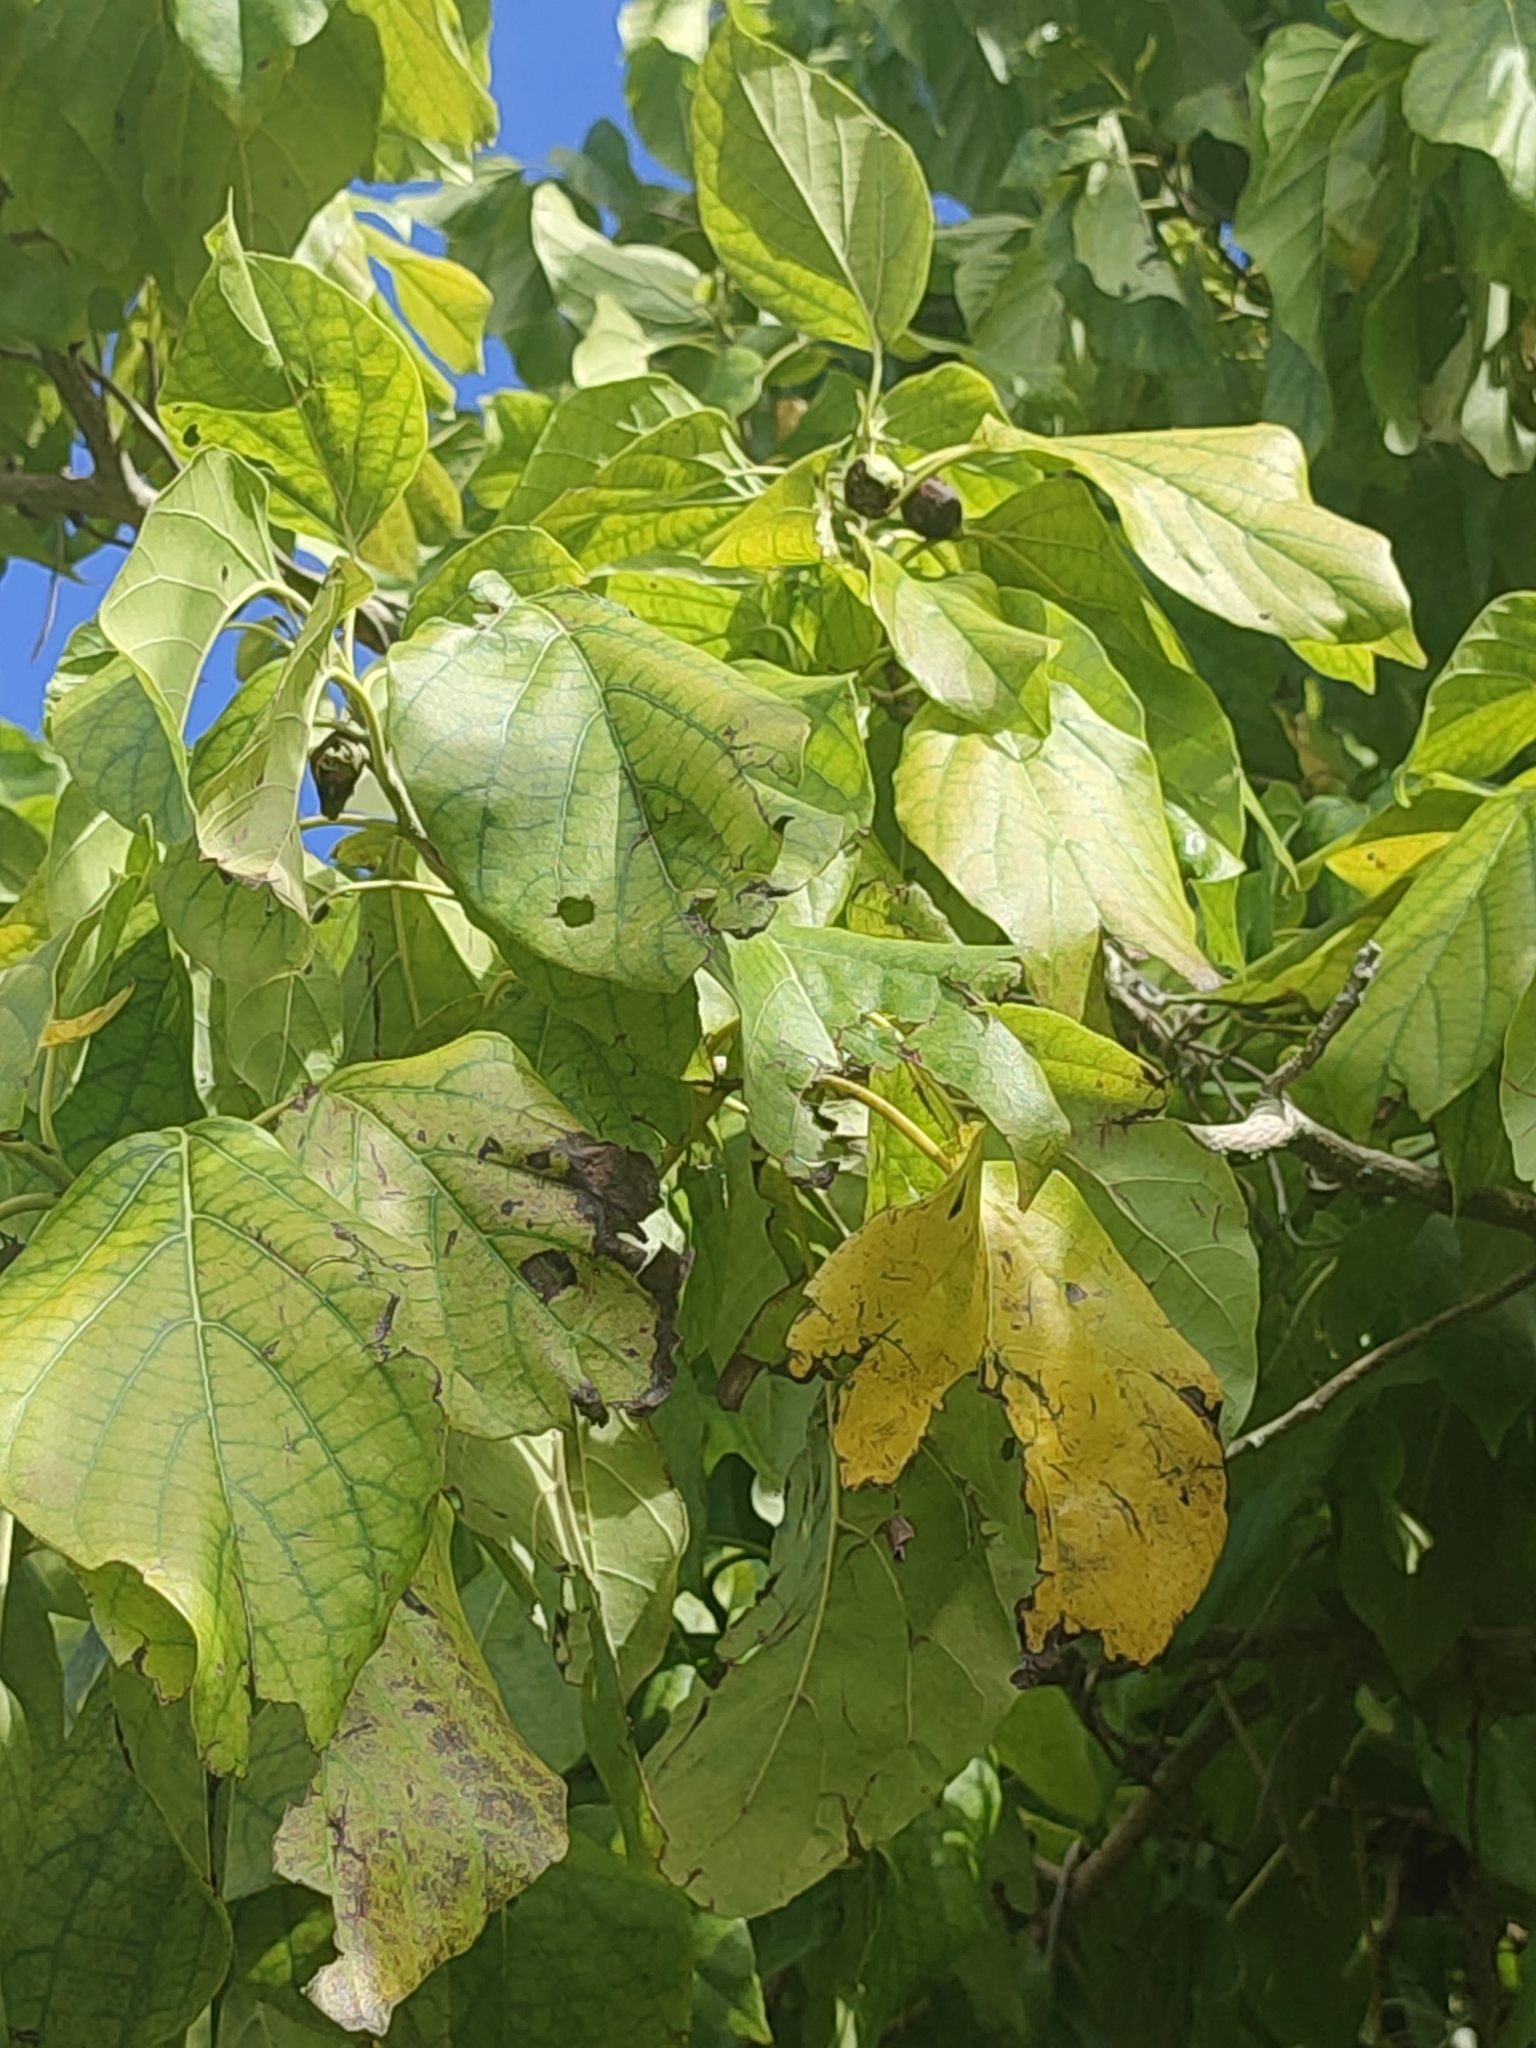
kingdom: Plantae
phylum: Tracheophyta
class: Magnoliopsida
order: Boraginales
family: Cordiaceae
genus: Cordia
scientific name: Cordia subcordata
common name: Mareer
